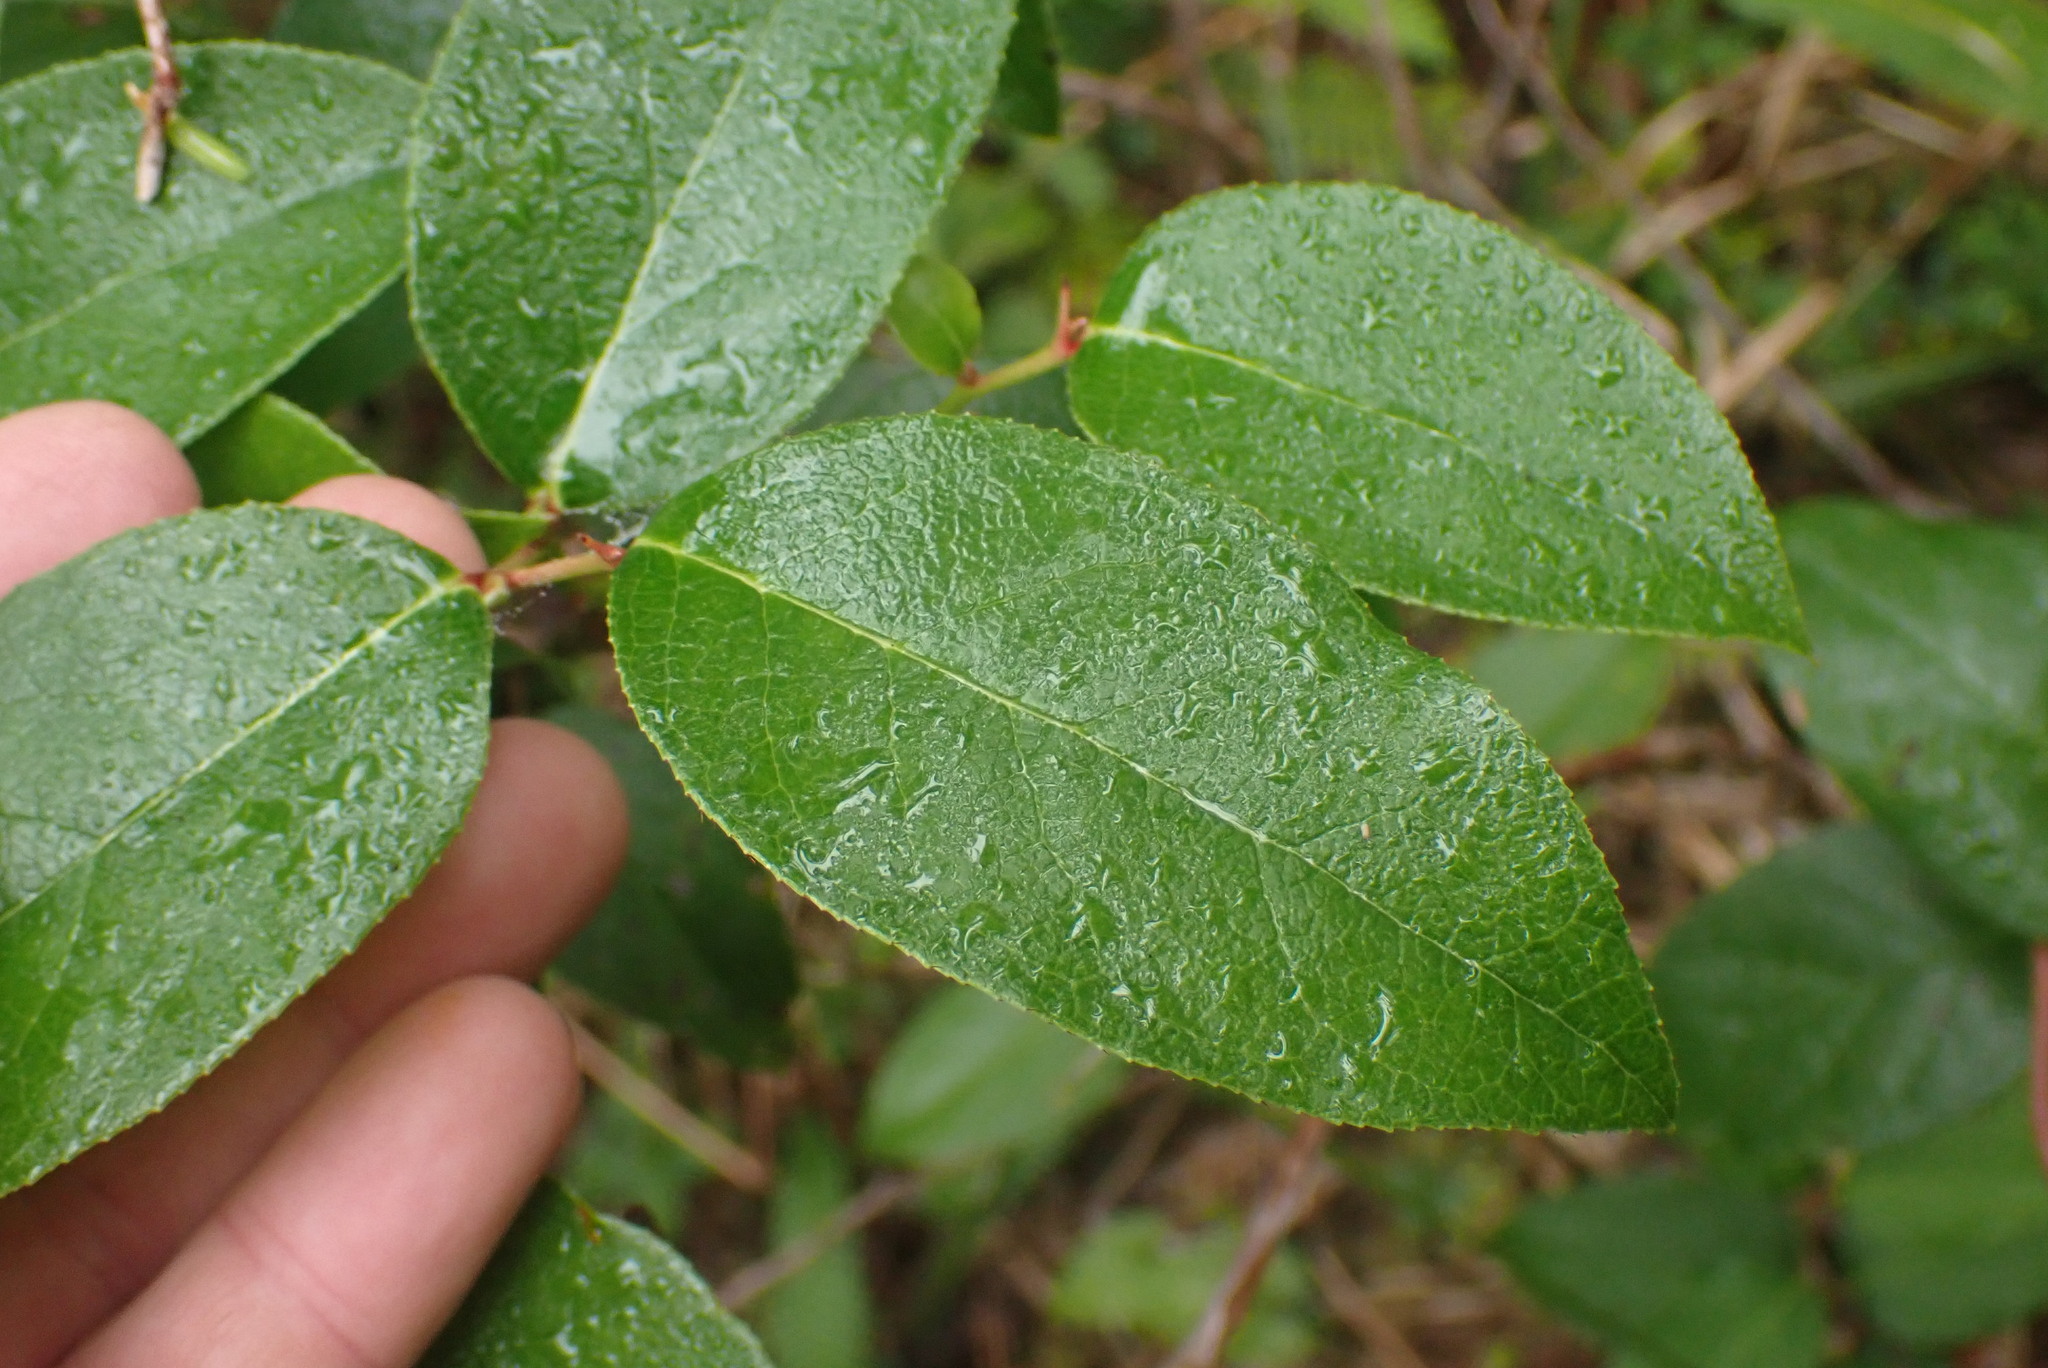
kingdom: Plantae
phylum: Tracheophyta
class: Magnoliopsida
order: Ericales
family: Ericaceae
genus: Gaultheria
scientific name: Gaultheria shallon
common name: Shallon
